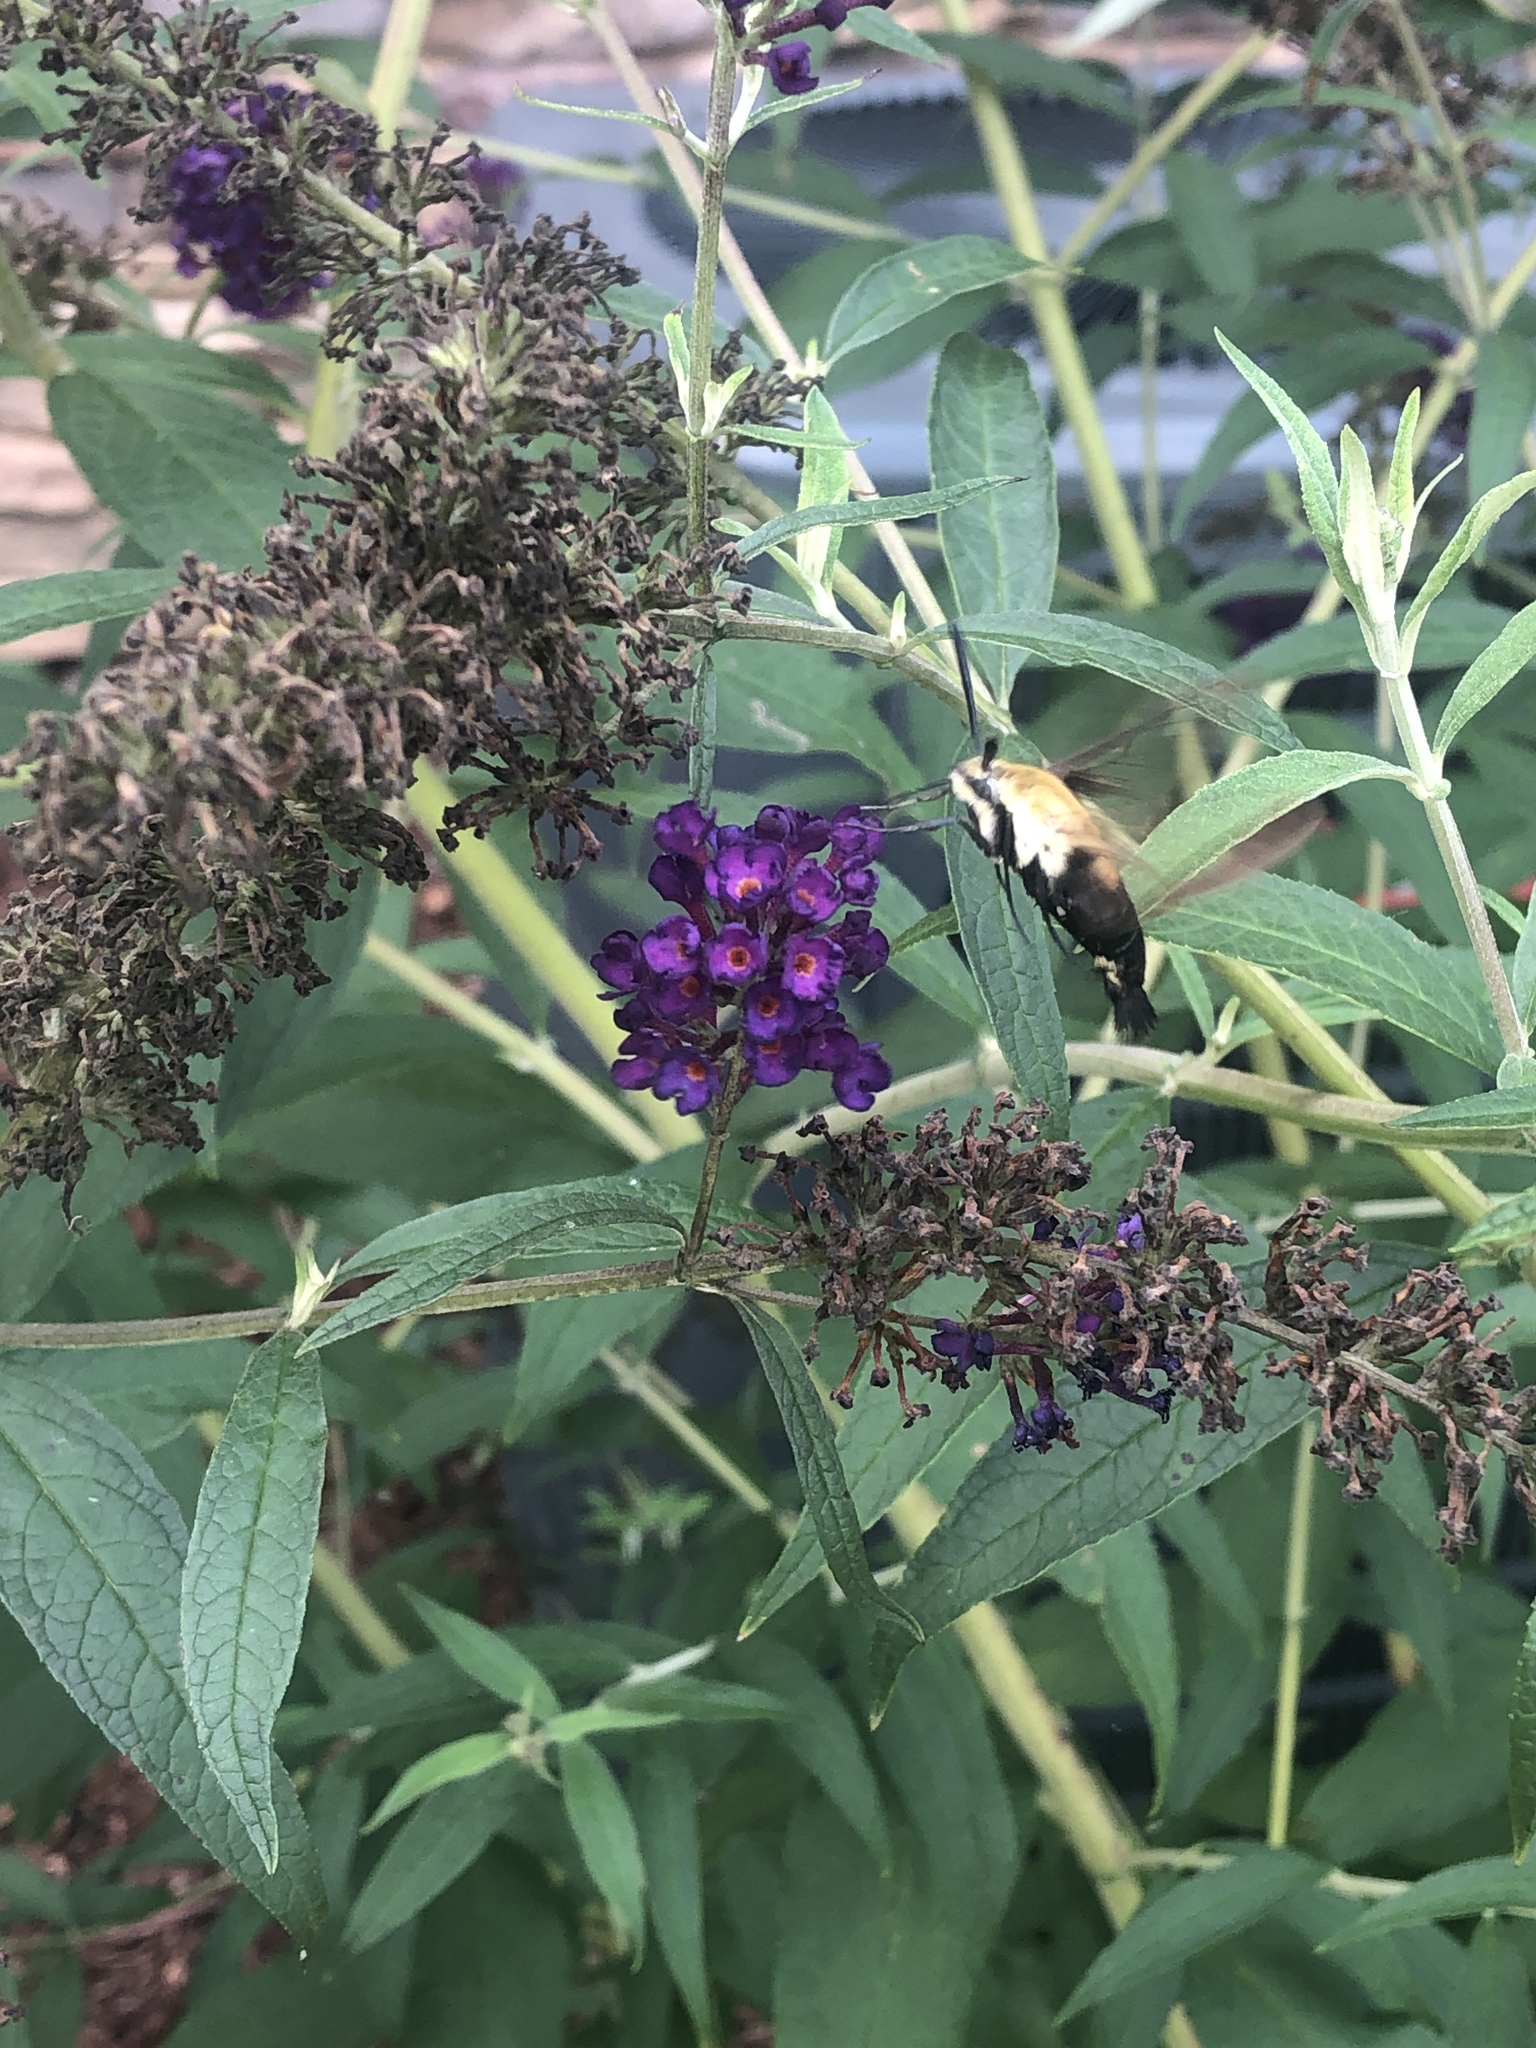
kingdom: Animalia
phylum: Arthropoda
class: Insecta
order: Lepidoptera
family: Sphingidae
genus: Hemaris
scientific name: Hemaris diffinis
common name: Bumblebee moth
